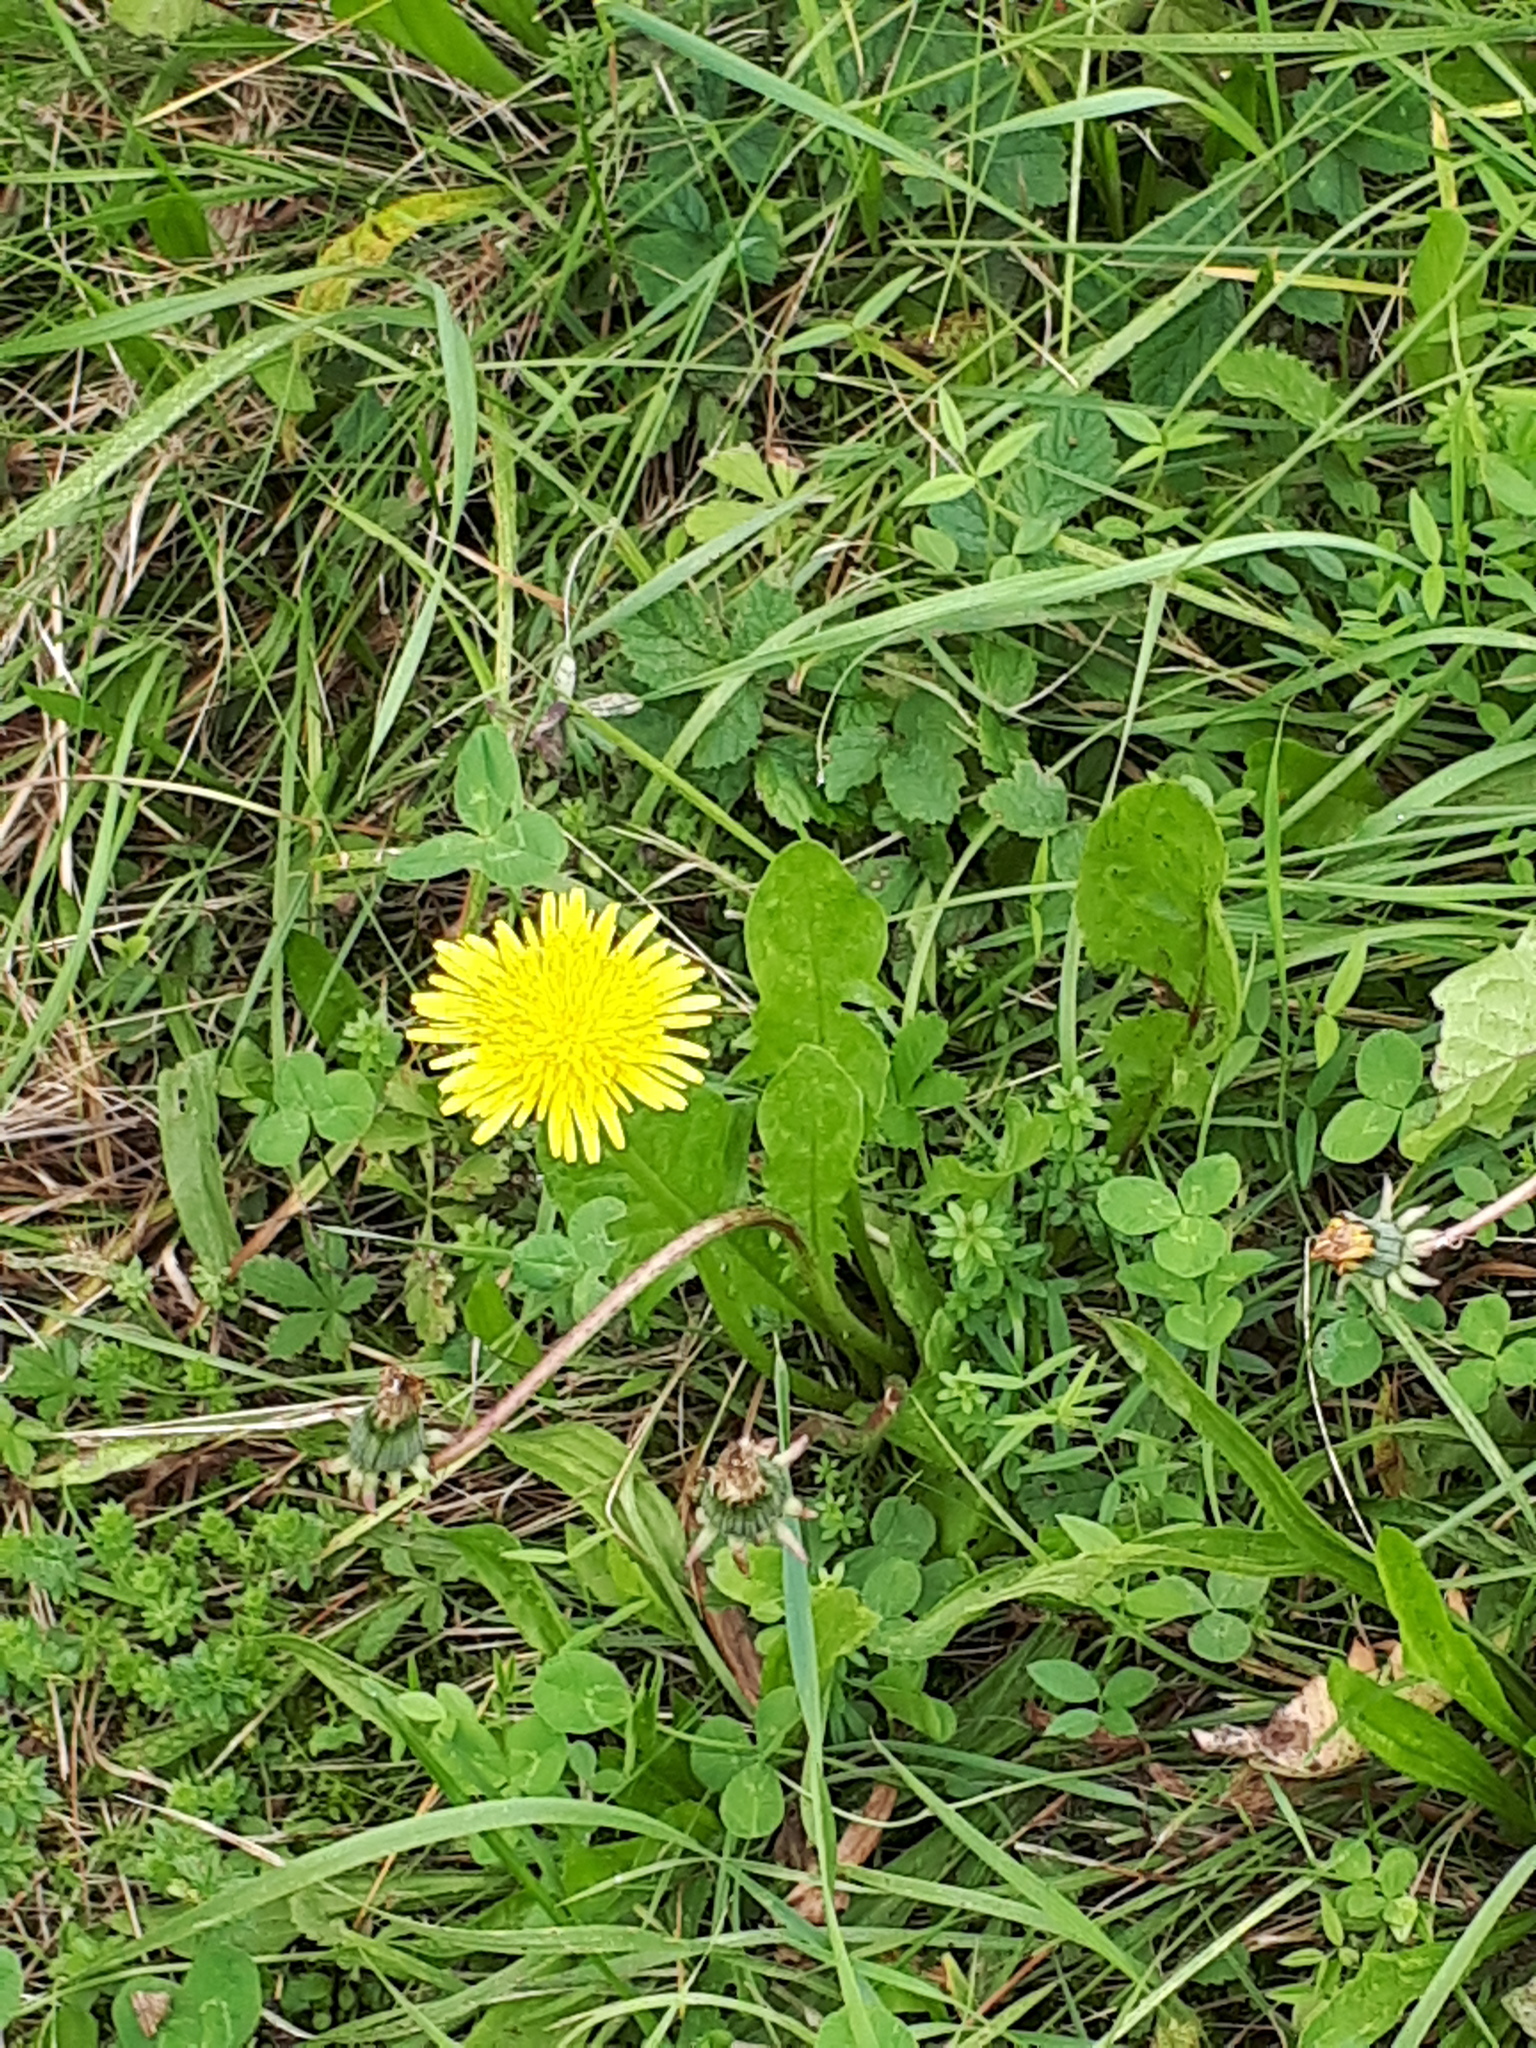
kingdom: Plantae
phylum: Tracheophyta
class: Magnoliopsida
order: Asterales
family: Asteraceae
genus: Taraxacum
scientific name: Taraxacum officinale
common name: Common dandelion
